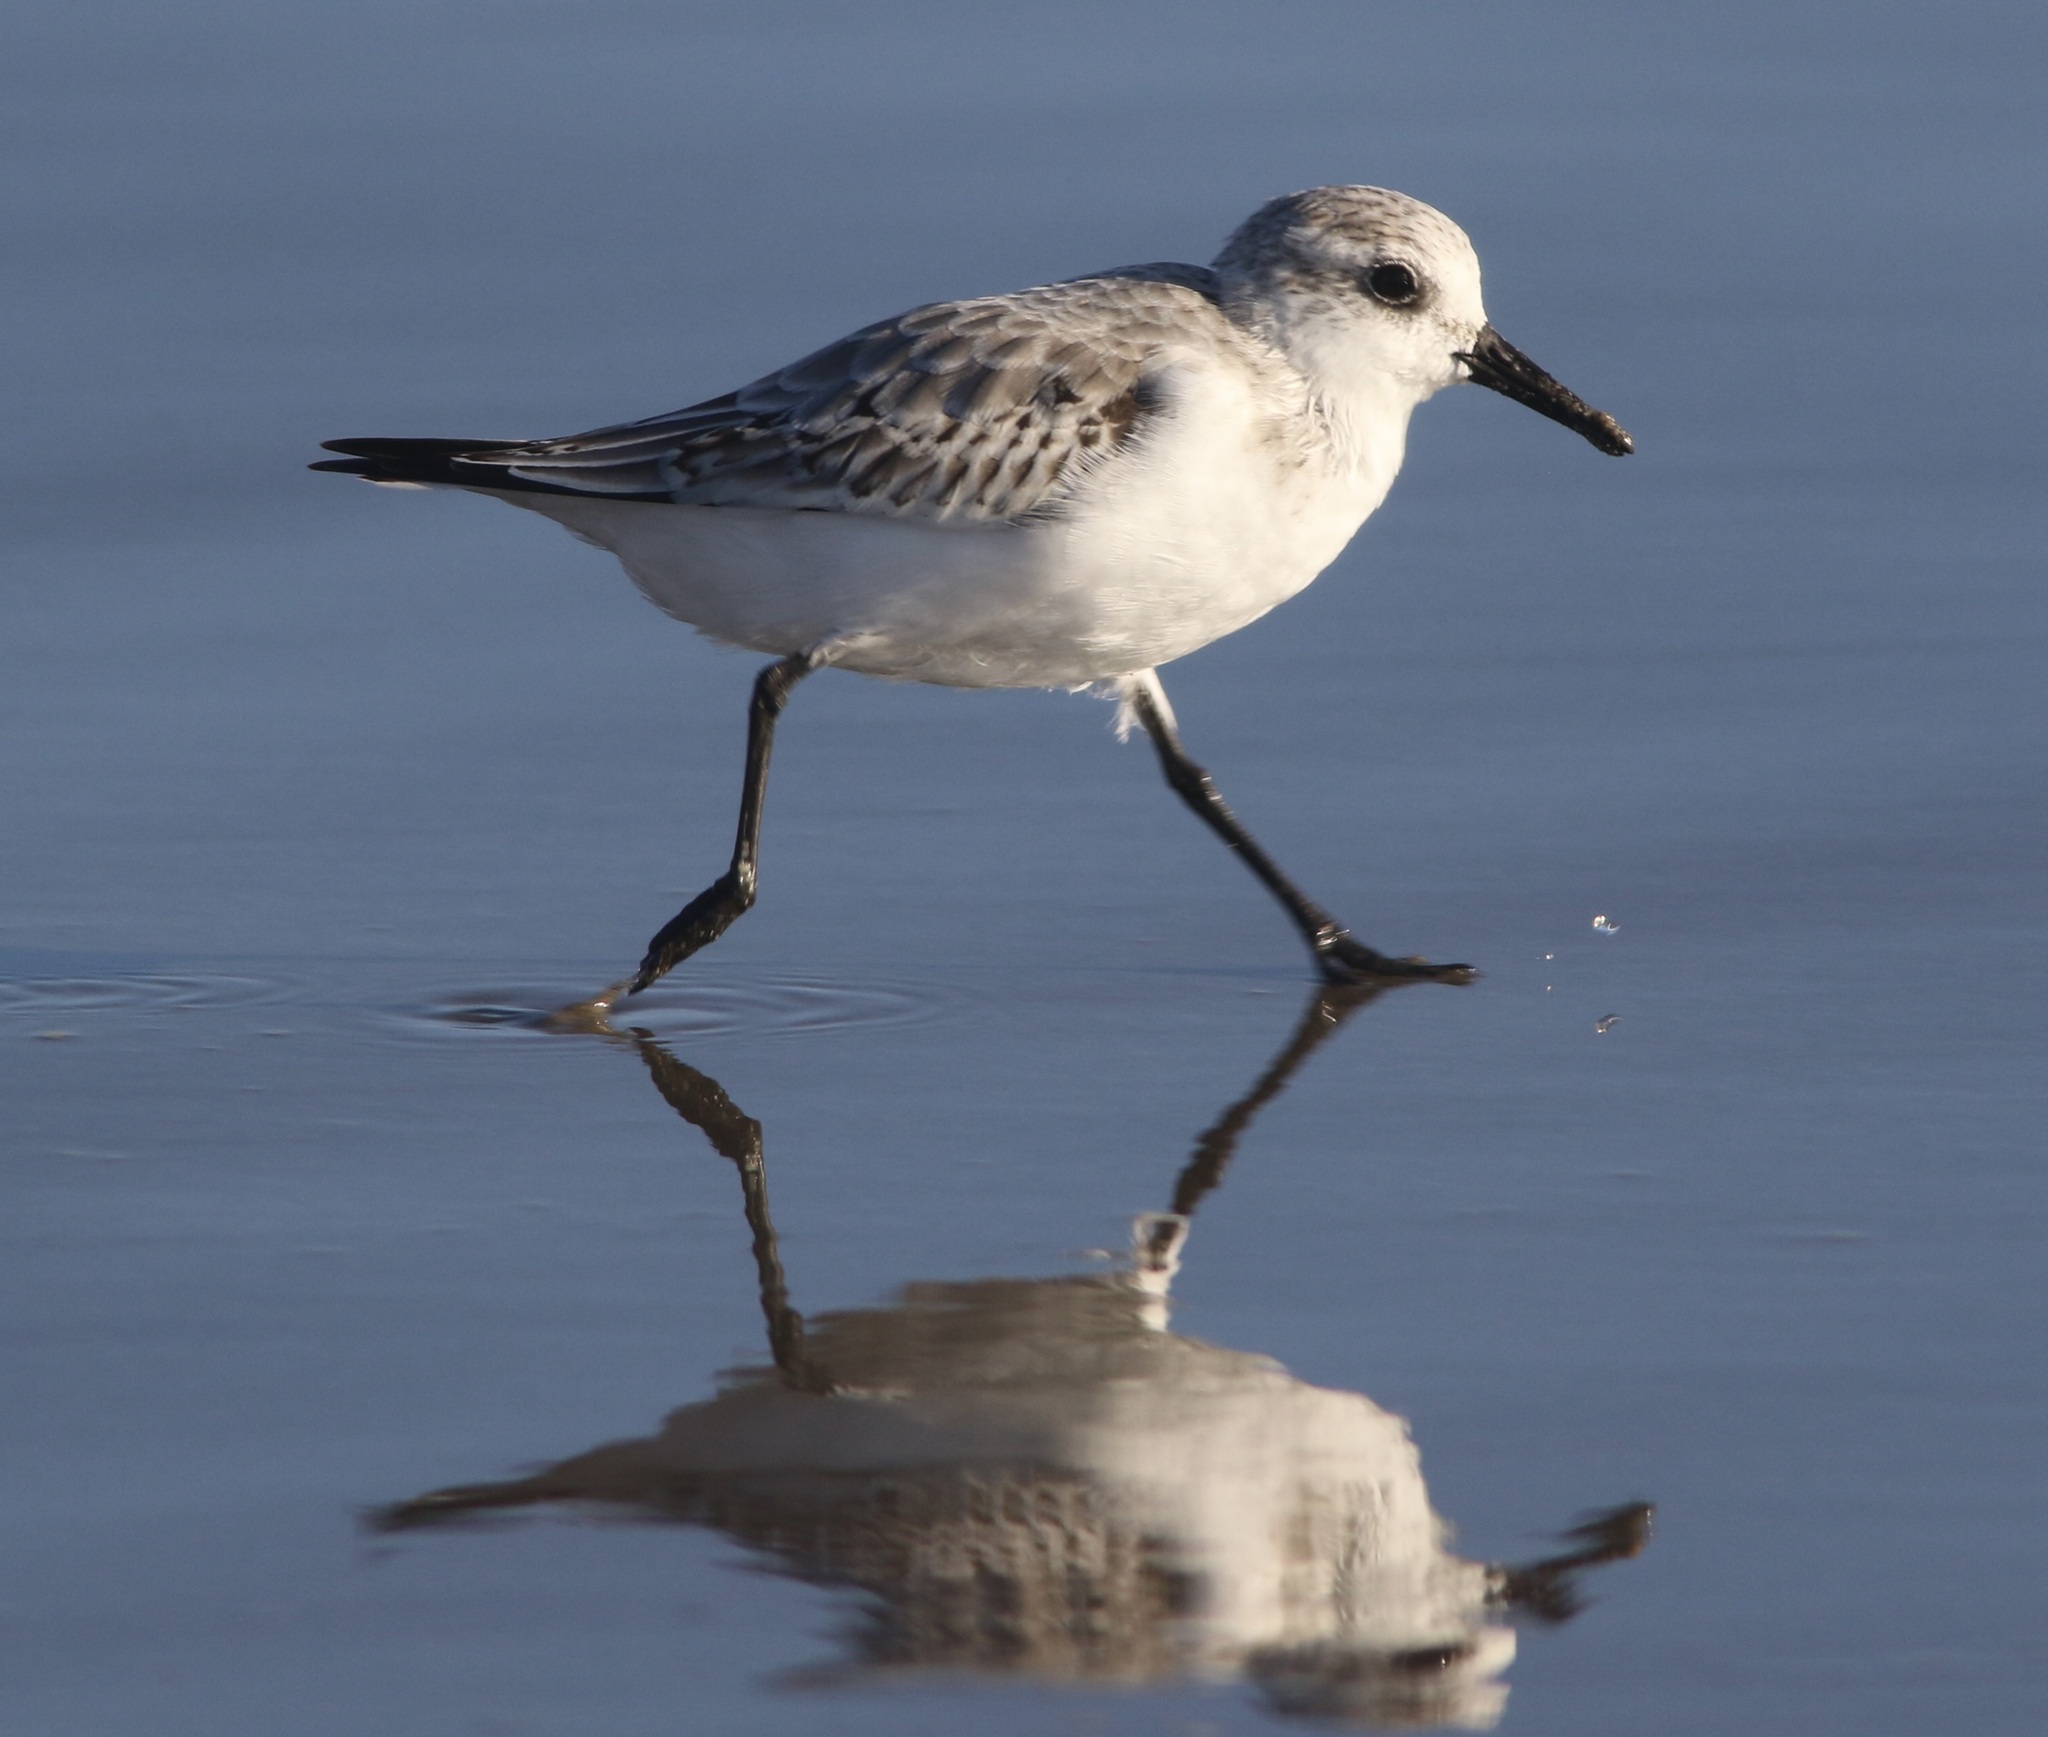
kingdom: Animalia
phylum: Chordata
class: Aves
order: Charadriiformes
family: Scolopacidae
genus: Calidris
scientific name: Calidris alba
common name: Sanderling
